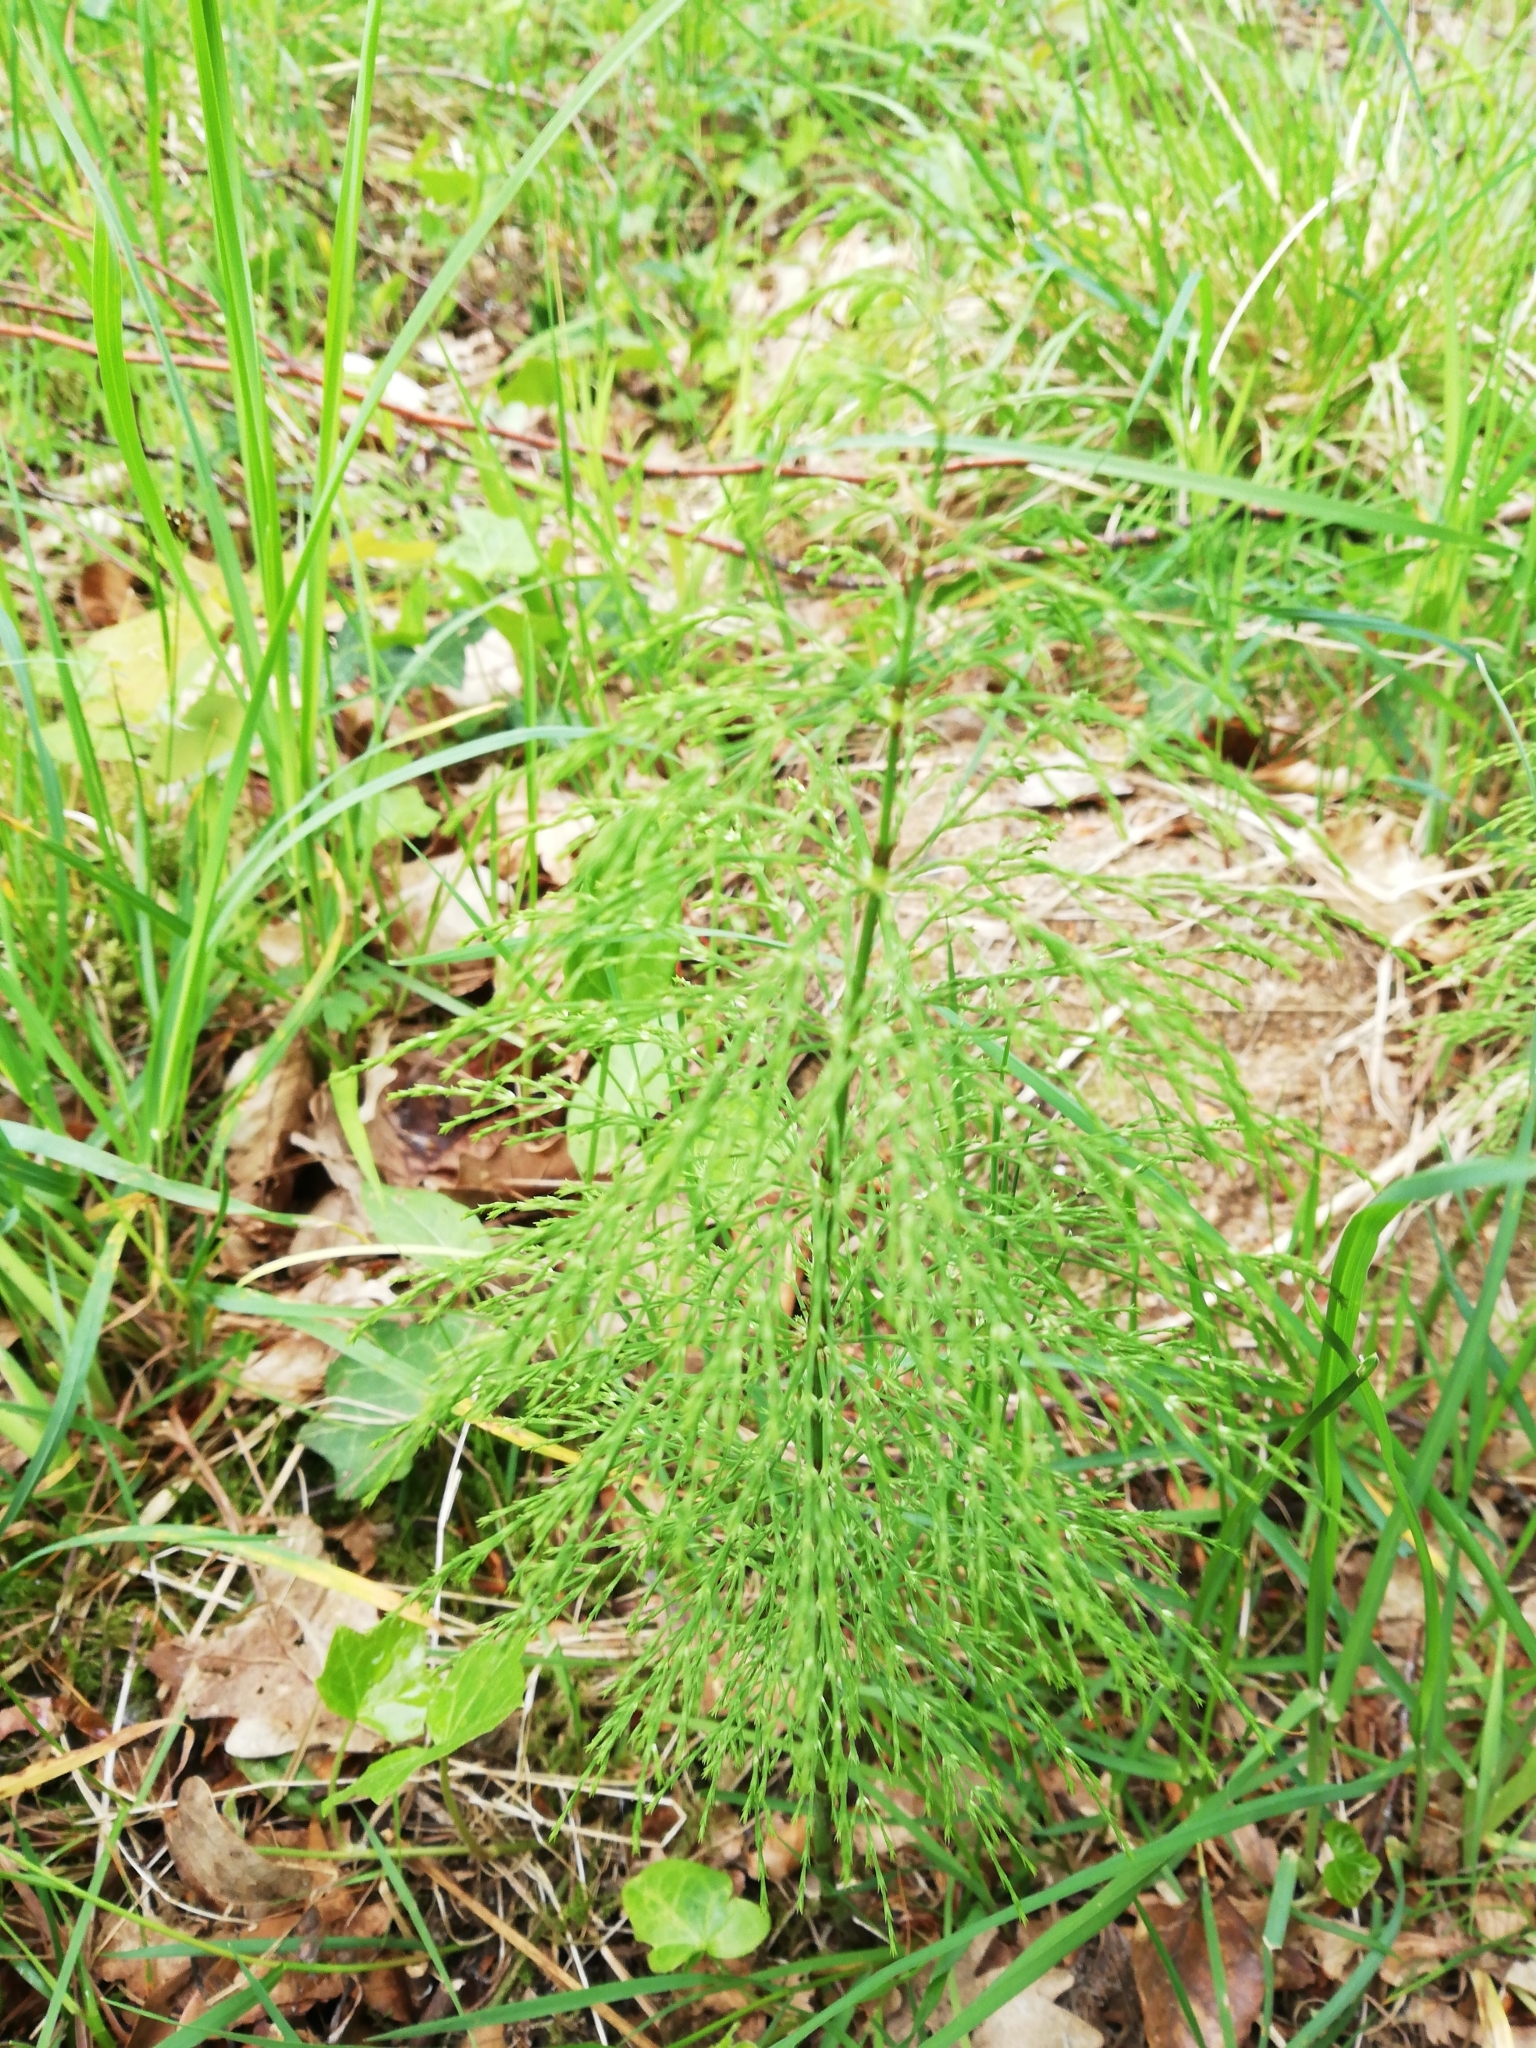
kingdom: Plantae
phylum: Tracheophyta
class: Polypodiopsida
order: Equisetales
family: Equisetaceae
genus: Equisetum
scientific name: Equisetum sylvaticum
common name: Wood horsetail
